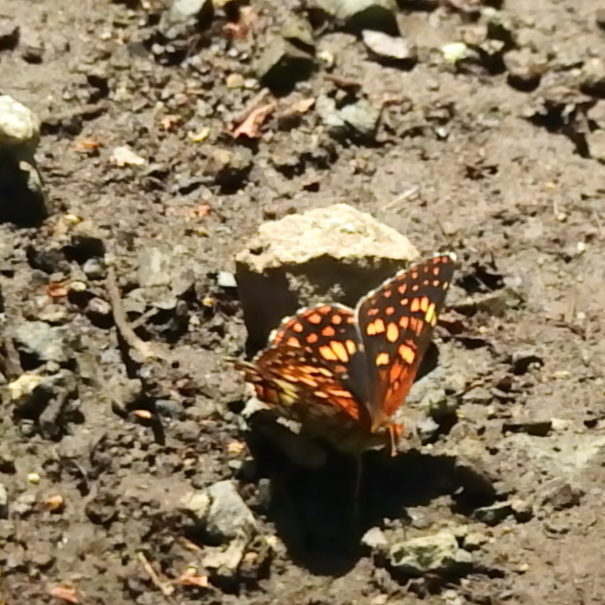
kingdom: Animalia
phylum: Arthropoda
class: Insecta
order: Lepidoptera
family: Nymphalidae
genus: Chlosyne
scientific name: Chlosyne palla
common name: Northern checkerspot
